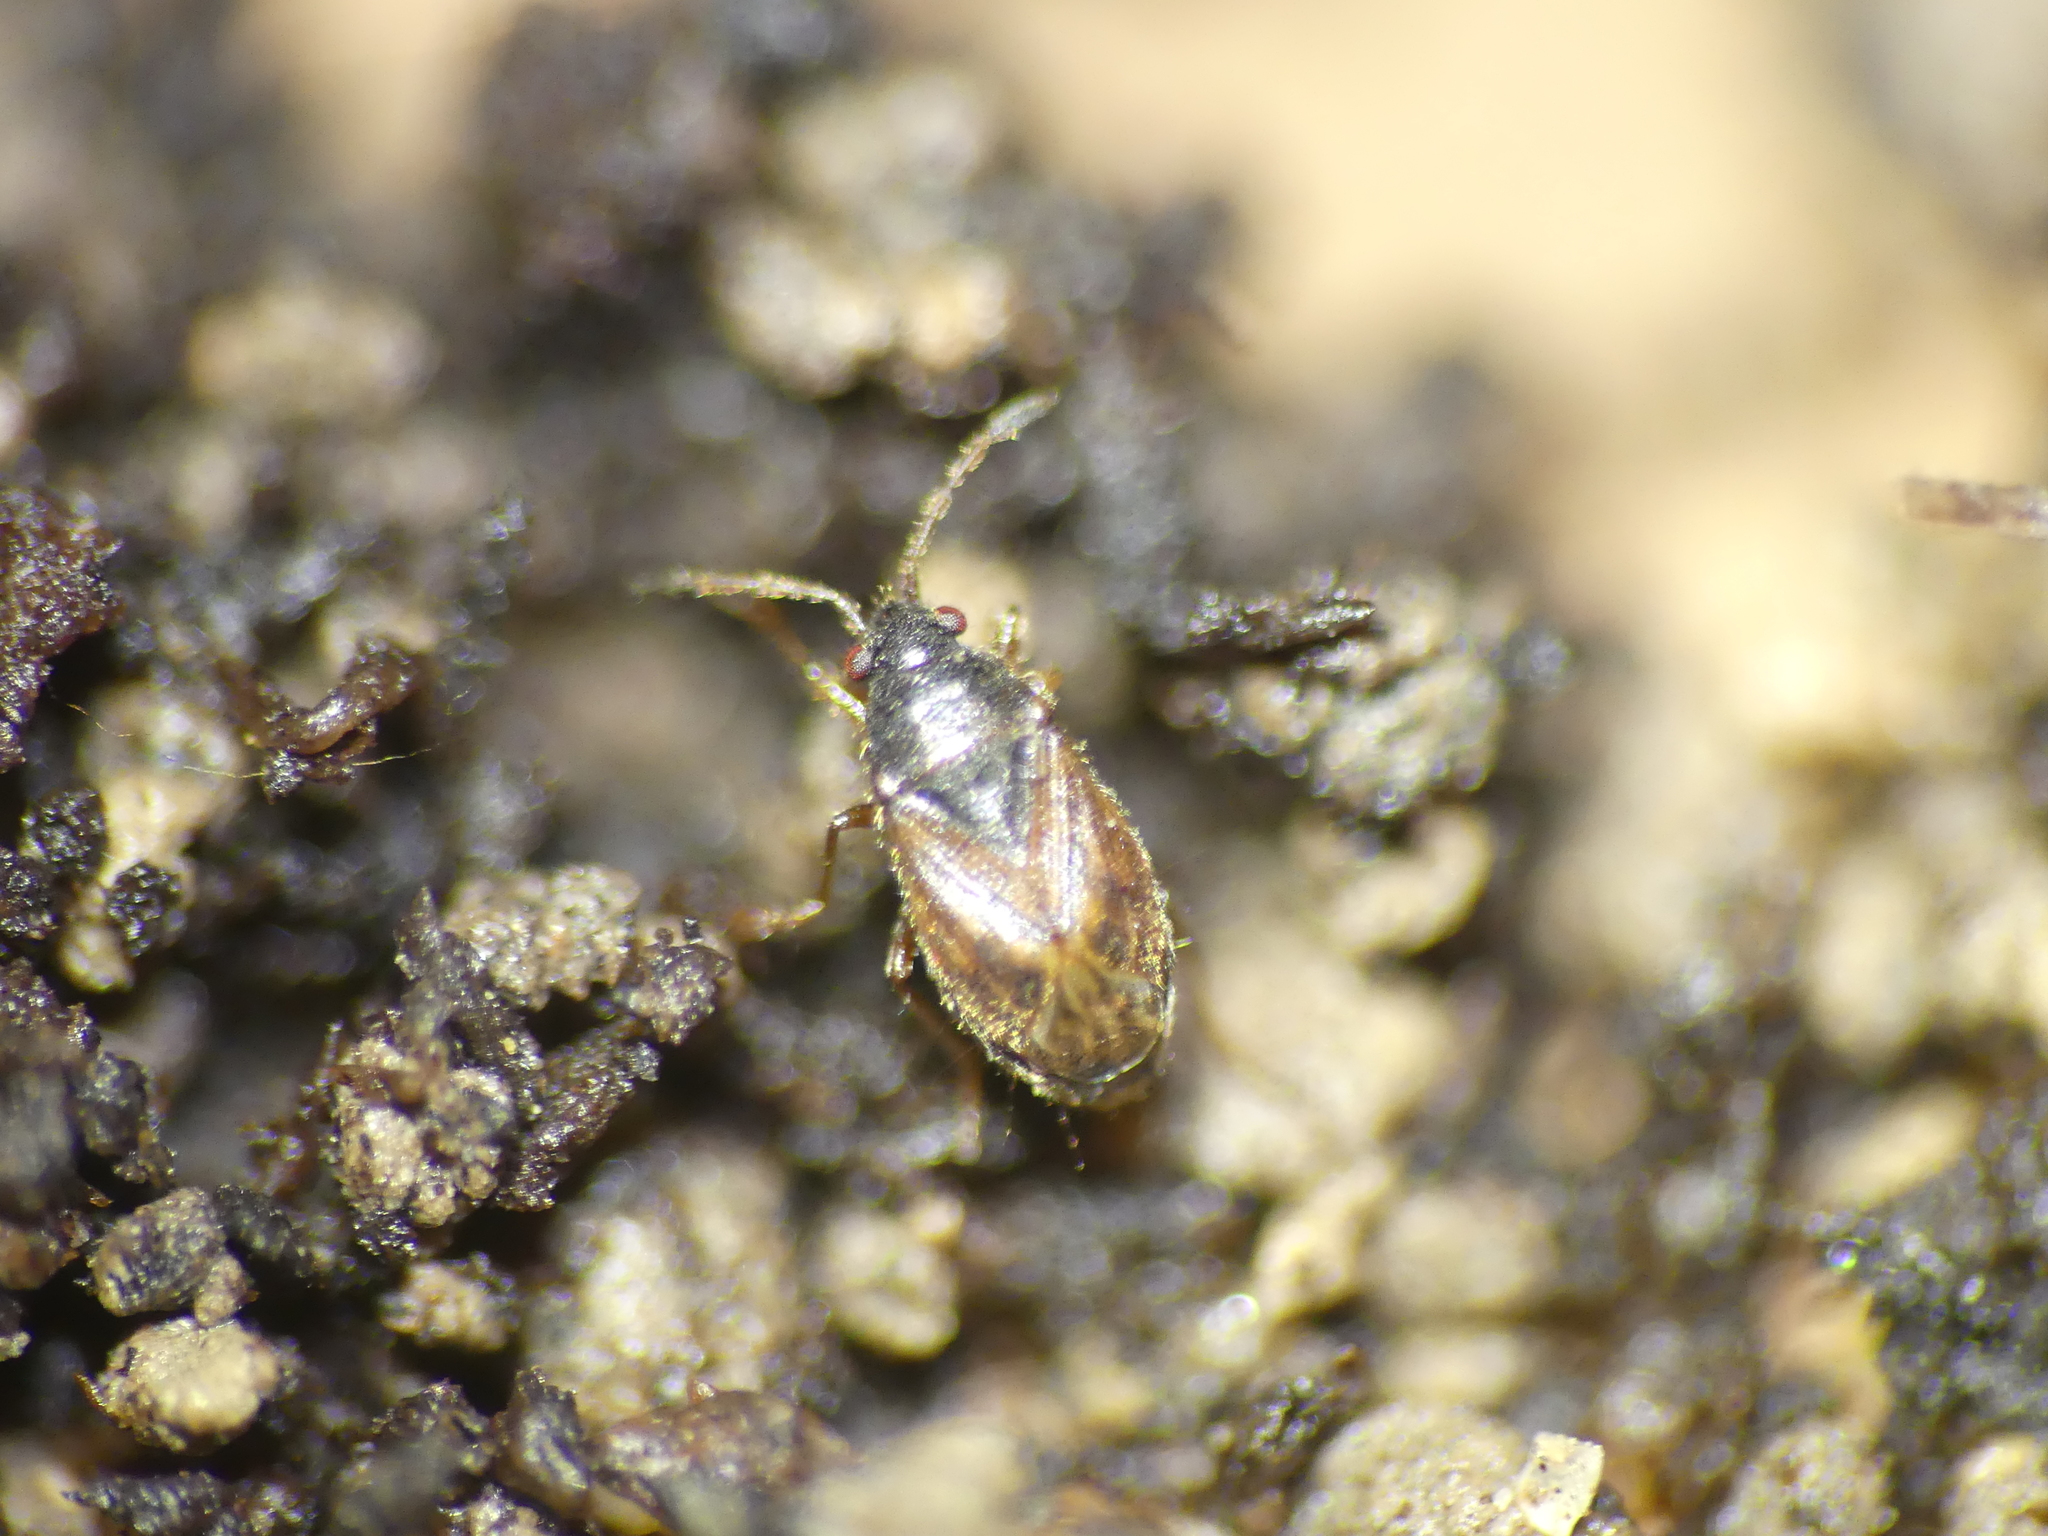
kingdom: Animalia
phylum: Arthropoda
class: Insecta
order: Hemiptera
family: Rhyparochromidae
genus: Stygnocoris
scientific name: Stygnocoris sabulosus
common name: Hairy groundbug
